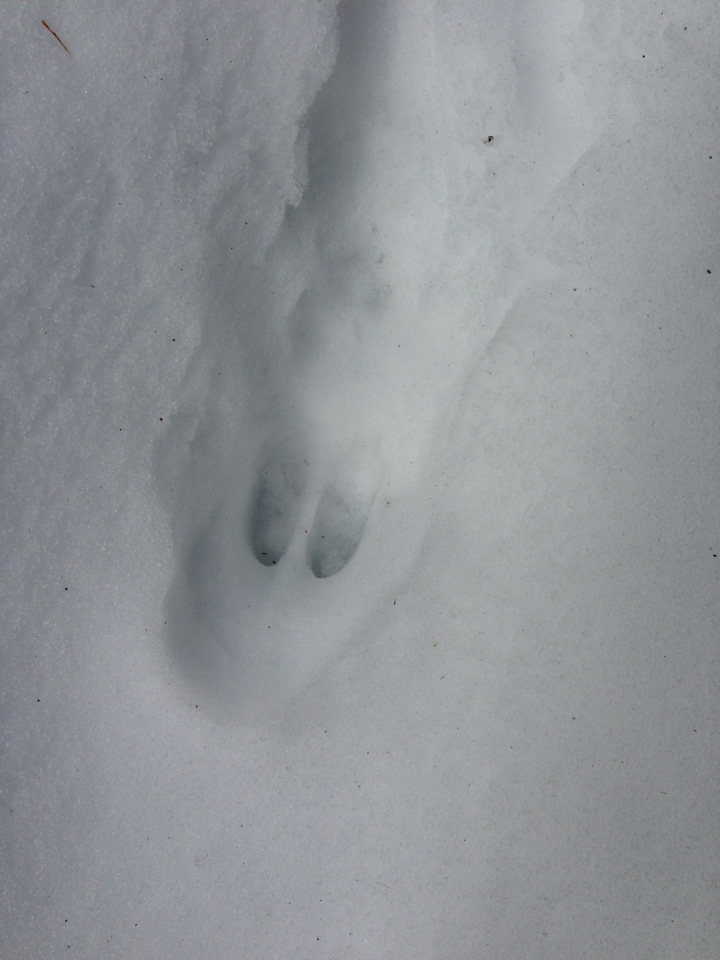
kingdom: Animalia
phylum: Chordata
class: Mammalia
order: Artiodactyla
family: Cervidae
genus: Odocoileus
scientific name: Odocoileus virginianus
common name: White-tailed deer
